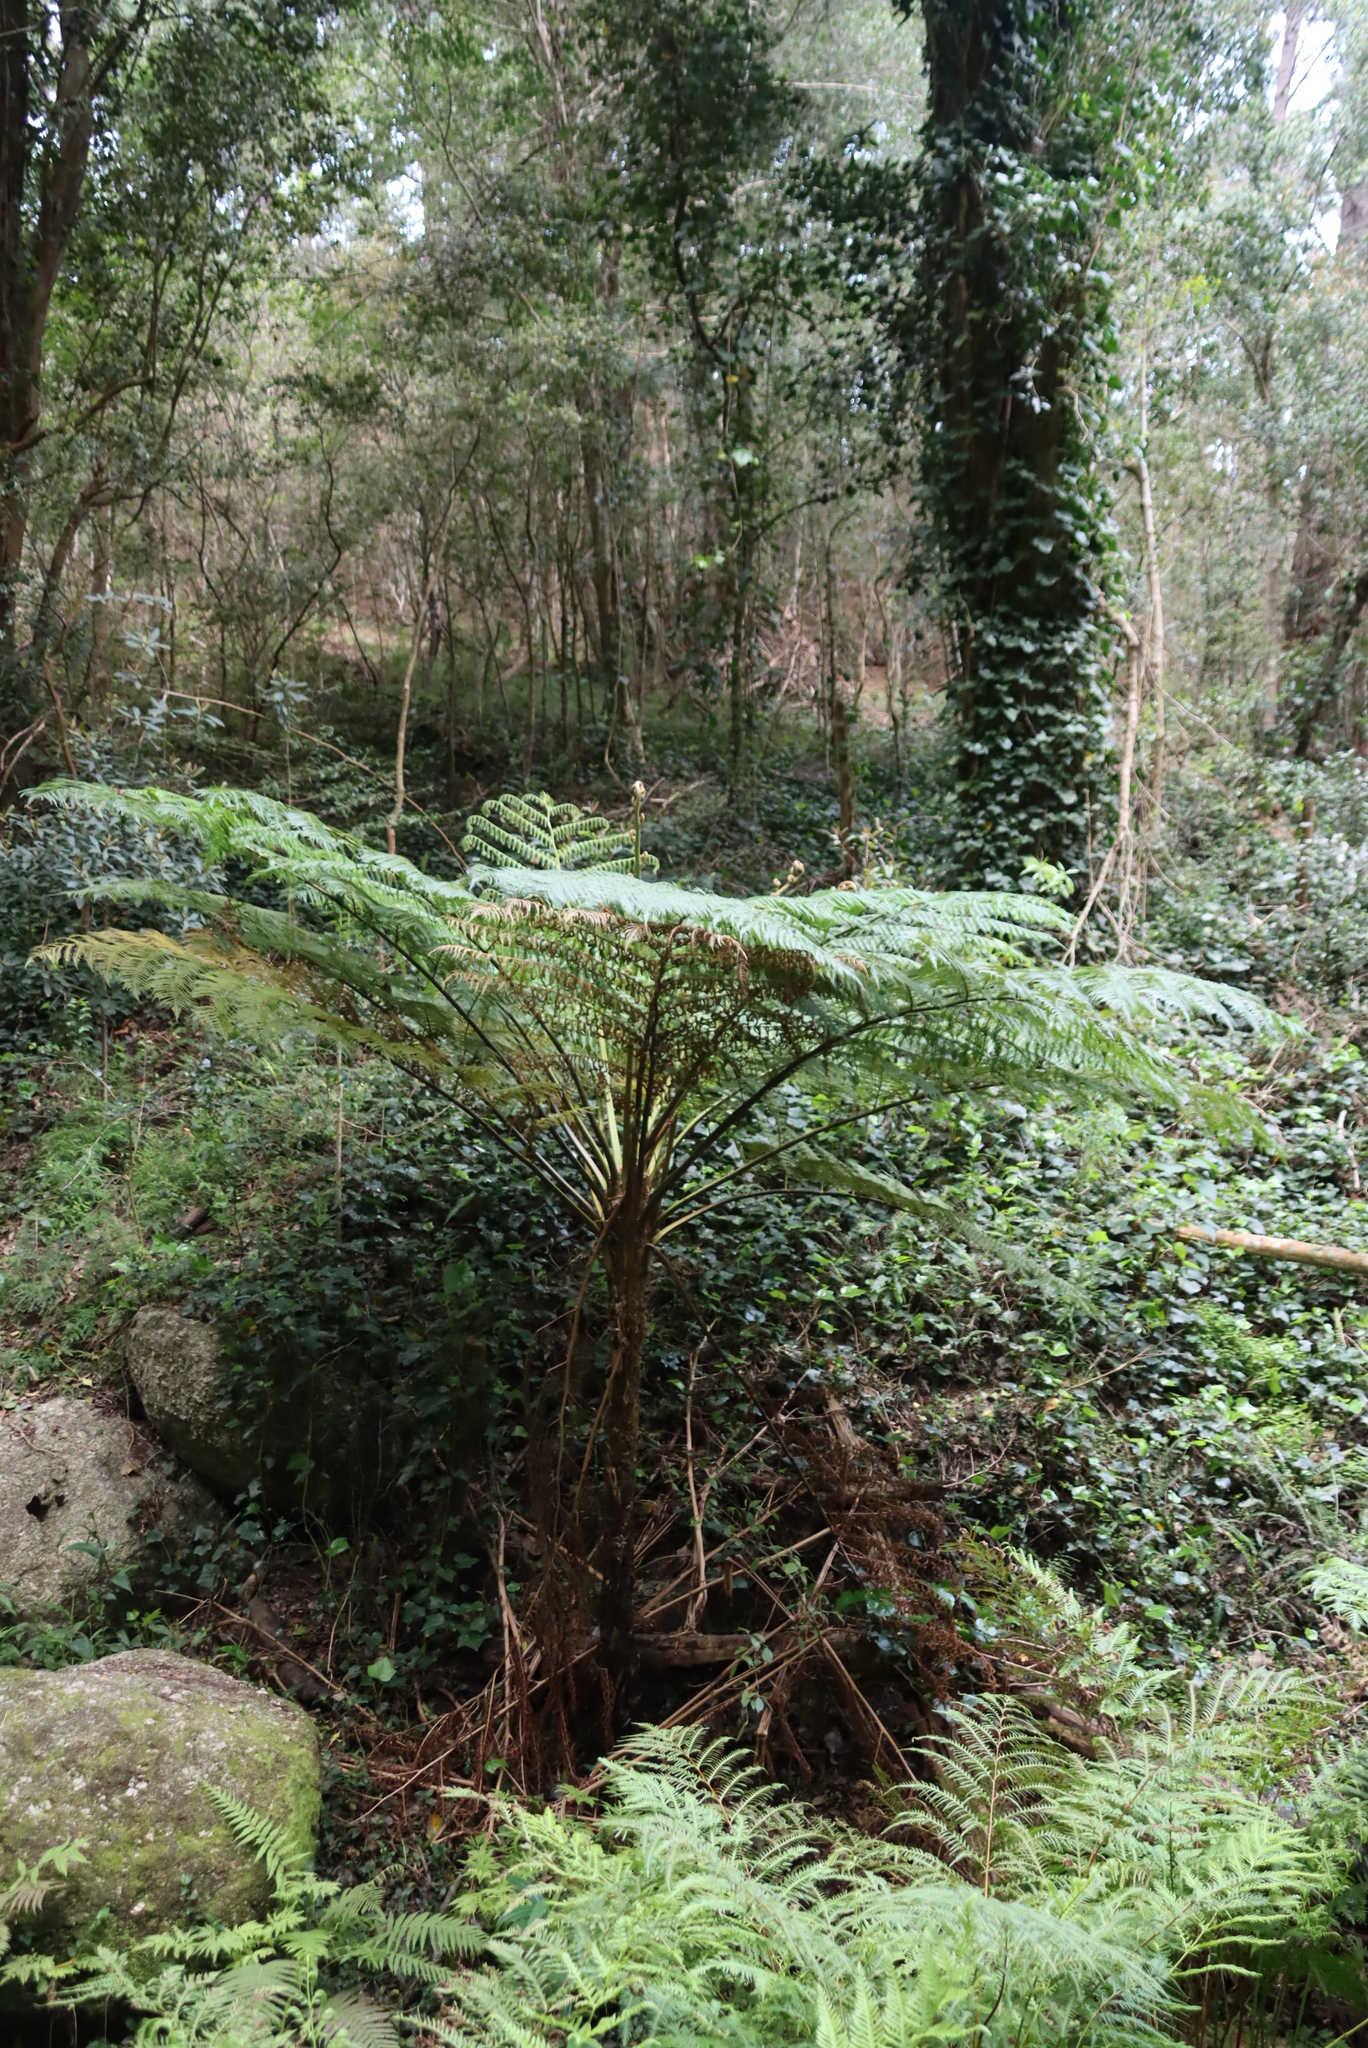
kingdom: Plantae
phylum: Tracheophyta
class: Polypodiopsida
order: Cyatheales
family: Cyatheaceae
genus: Sphaeropteris
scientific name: Sphaeropteris cooperi
